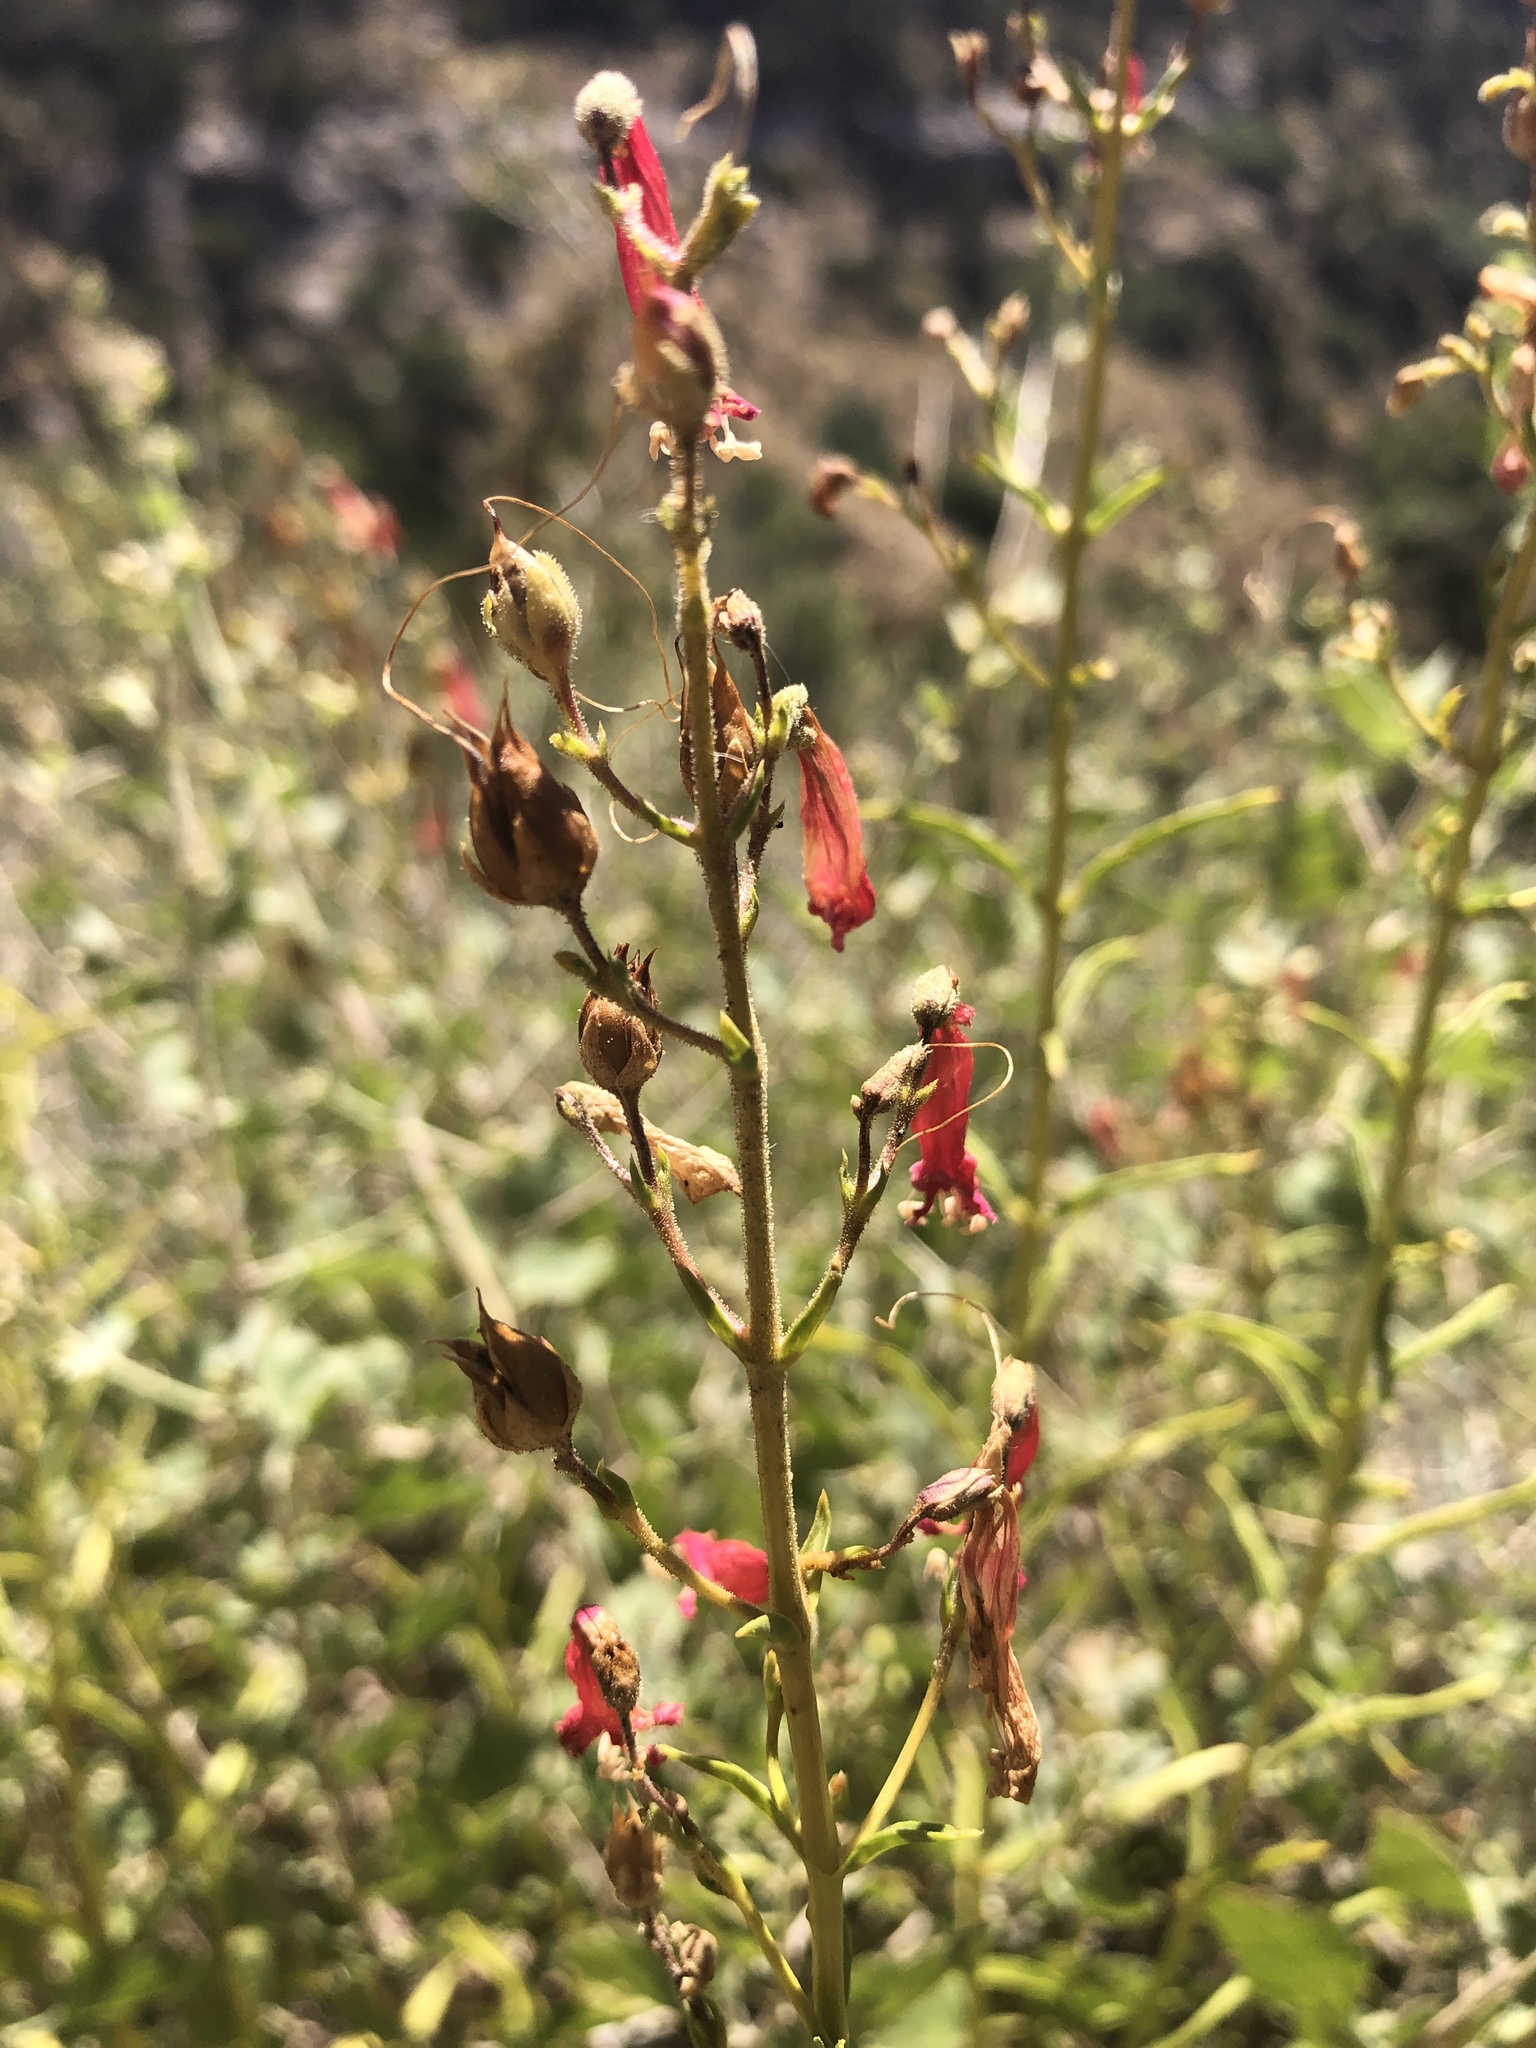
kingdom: Plantae
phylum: Tracheophyta
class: Magnoliopsida
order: Lamiales
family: Plantaginaceae
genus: Penstemon
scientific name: Penstemon eatonii
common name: Eaton's penstemon
